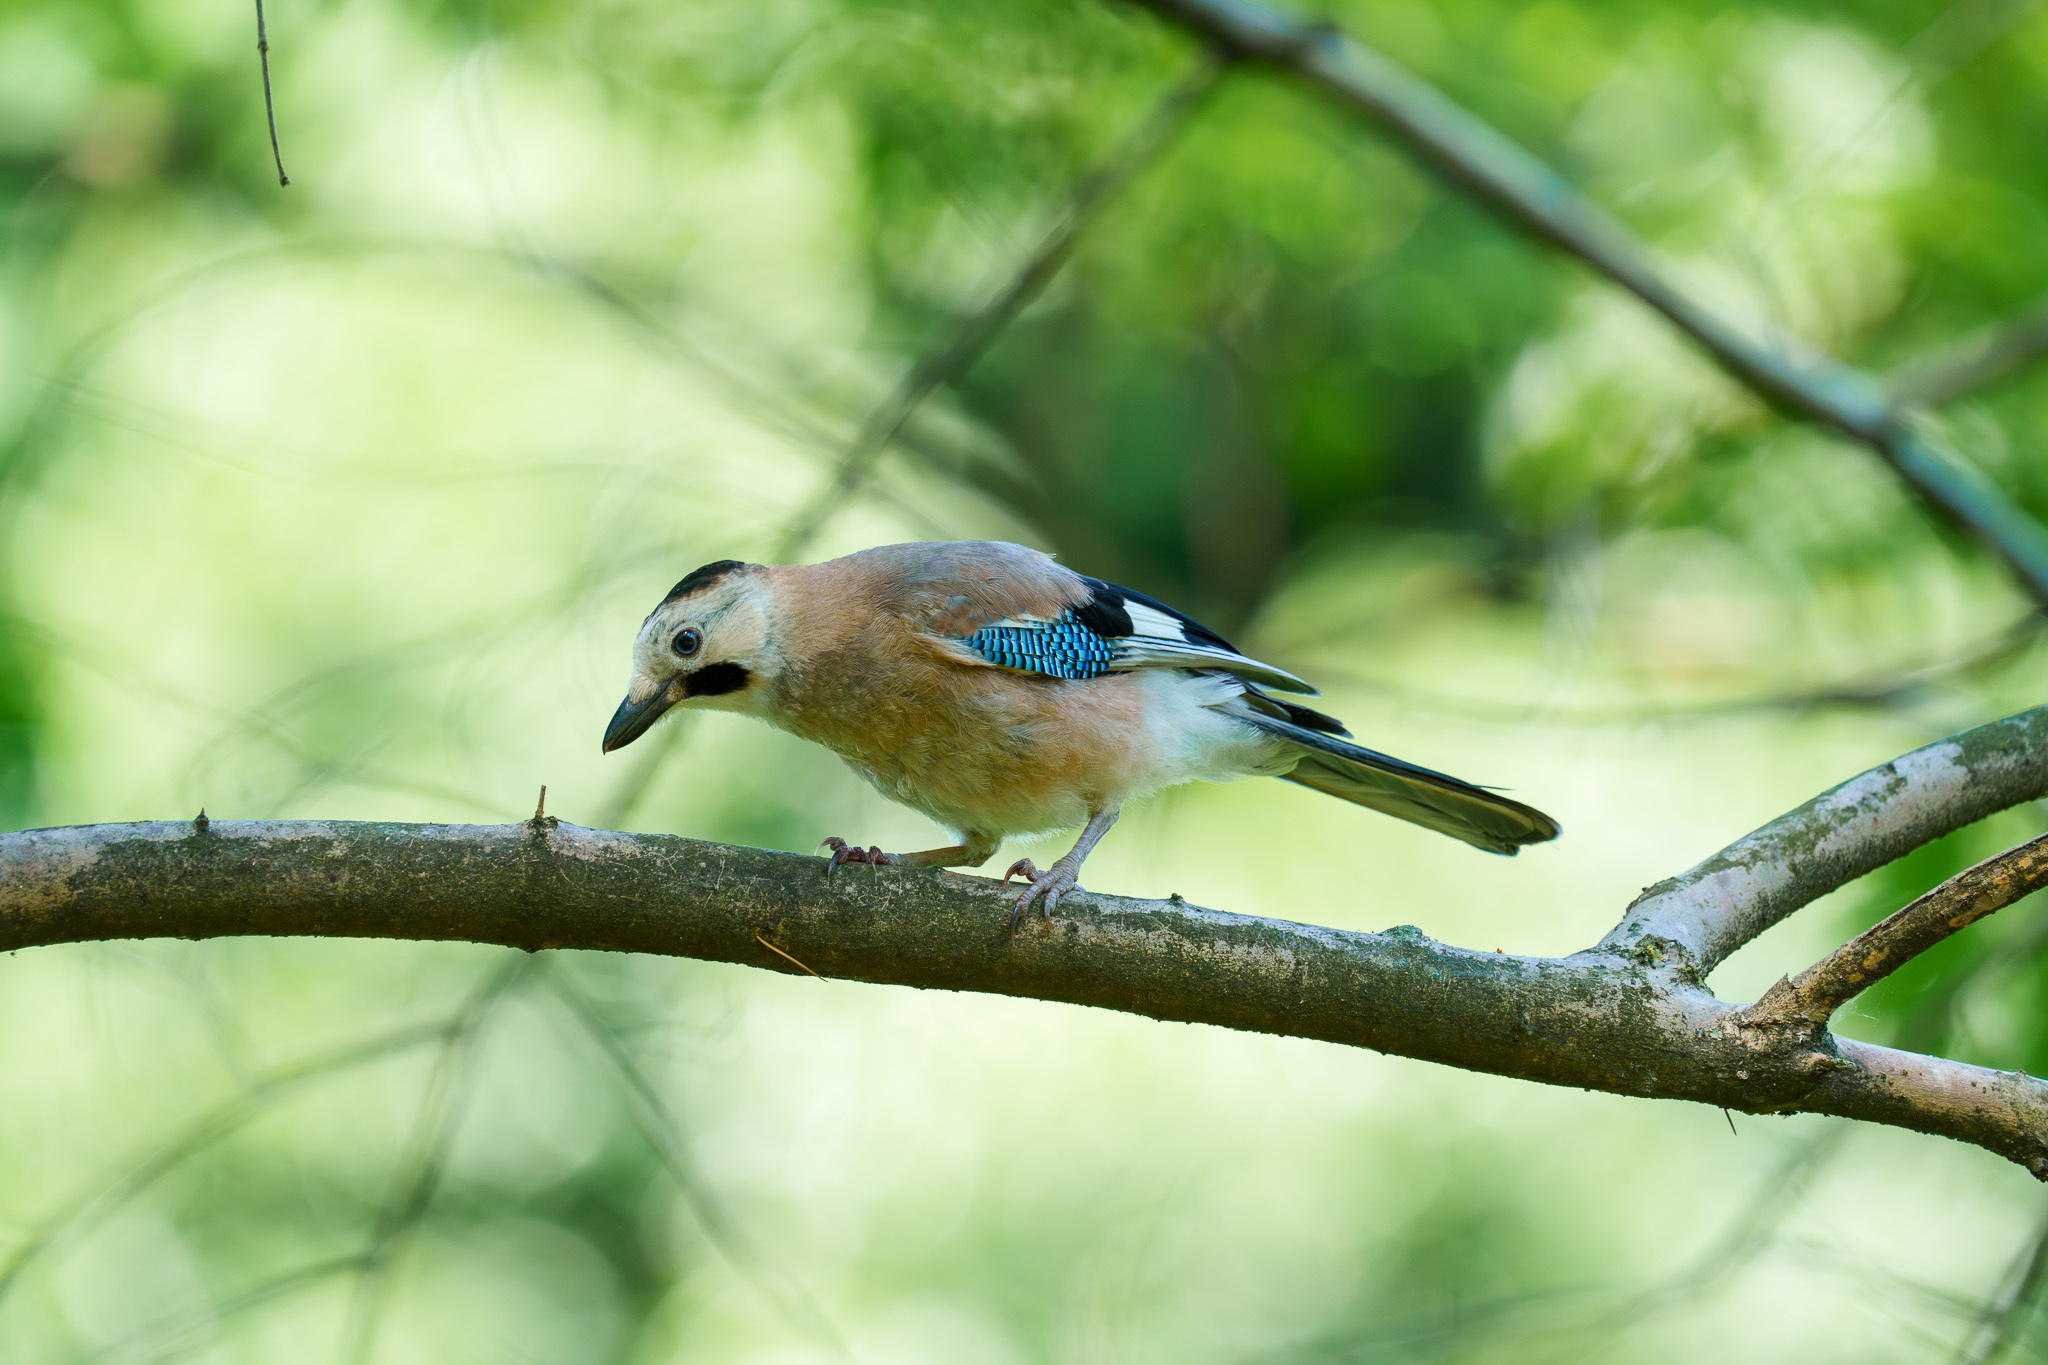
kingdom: Animalia
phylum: Chordata
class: Aves
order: Passeriformes
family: Corvidae
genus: Garrulus
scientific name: Garrulus glandarius
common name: Eurasian jay
